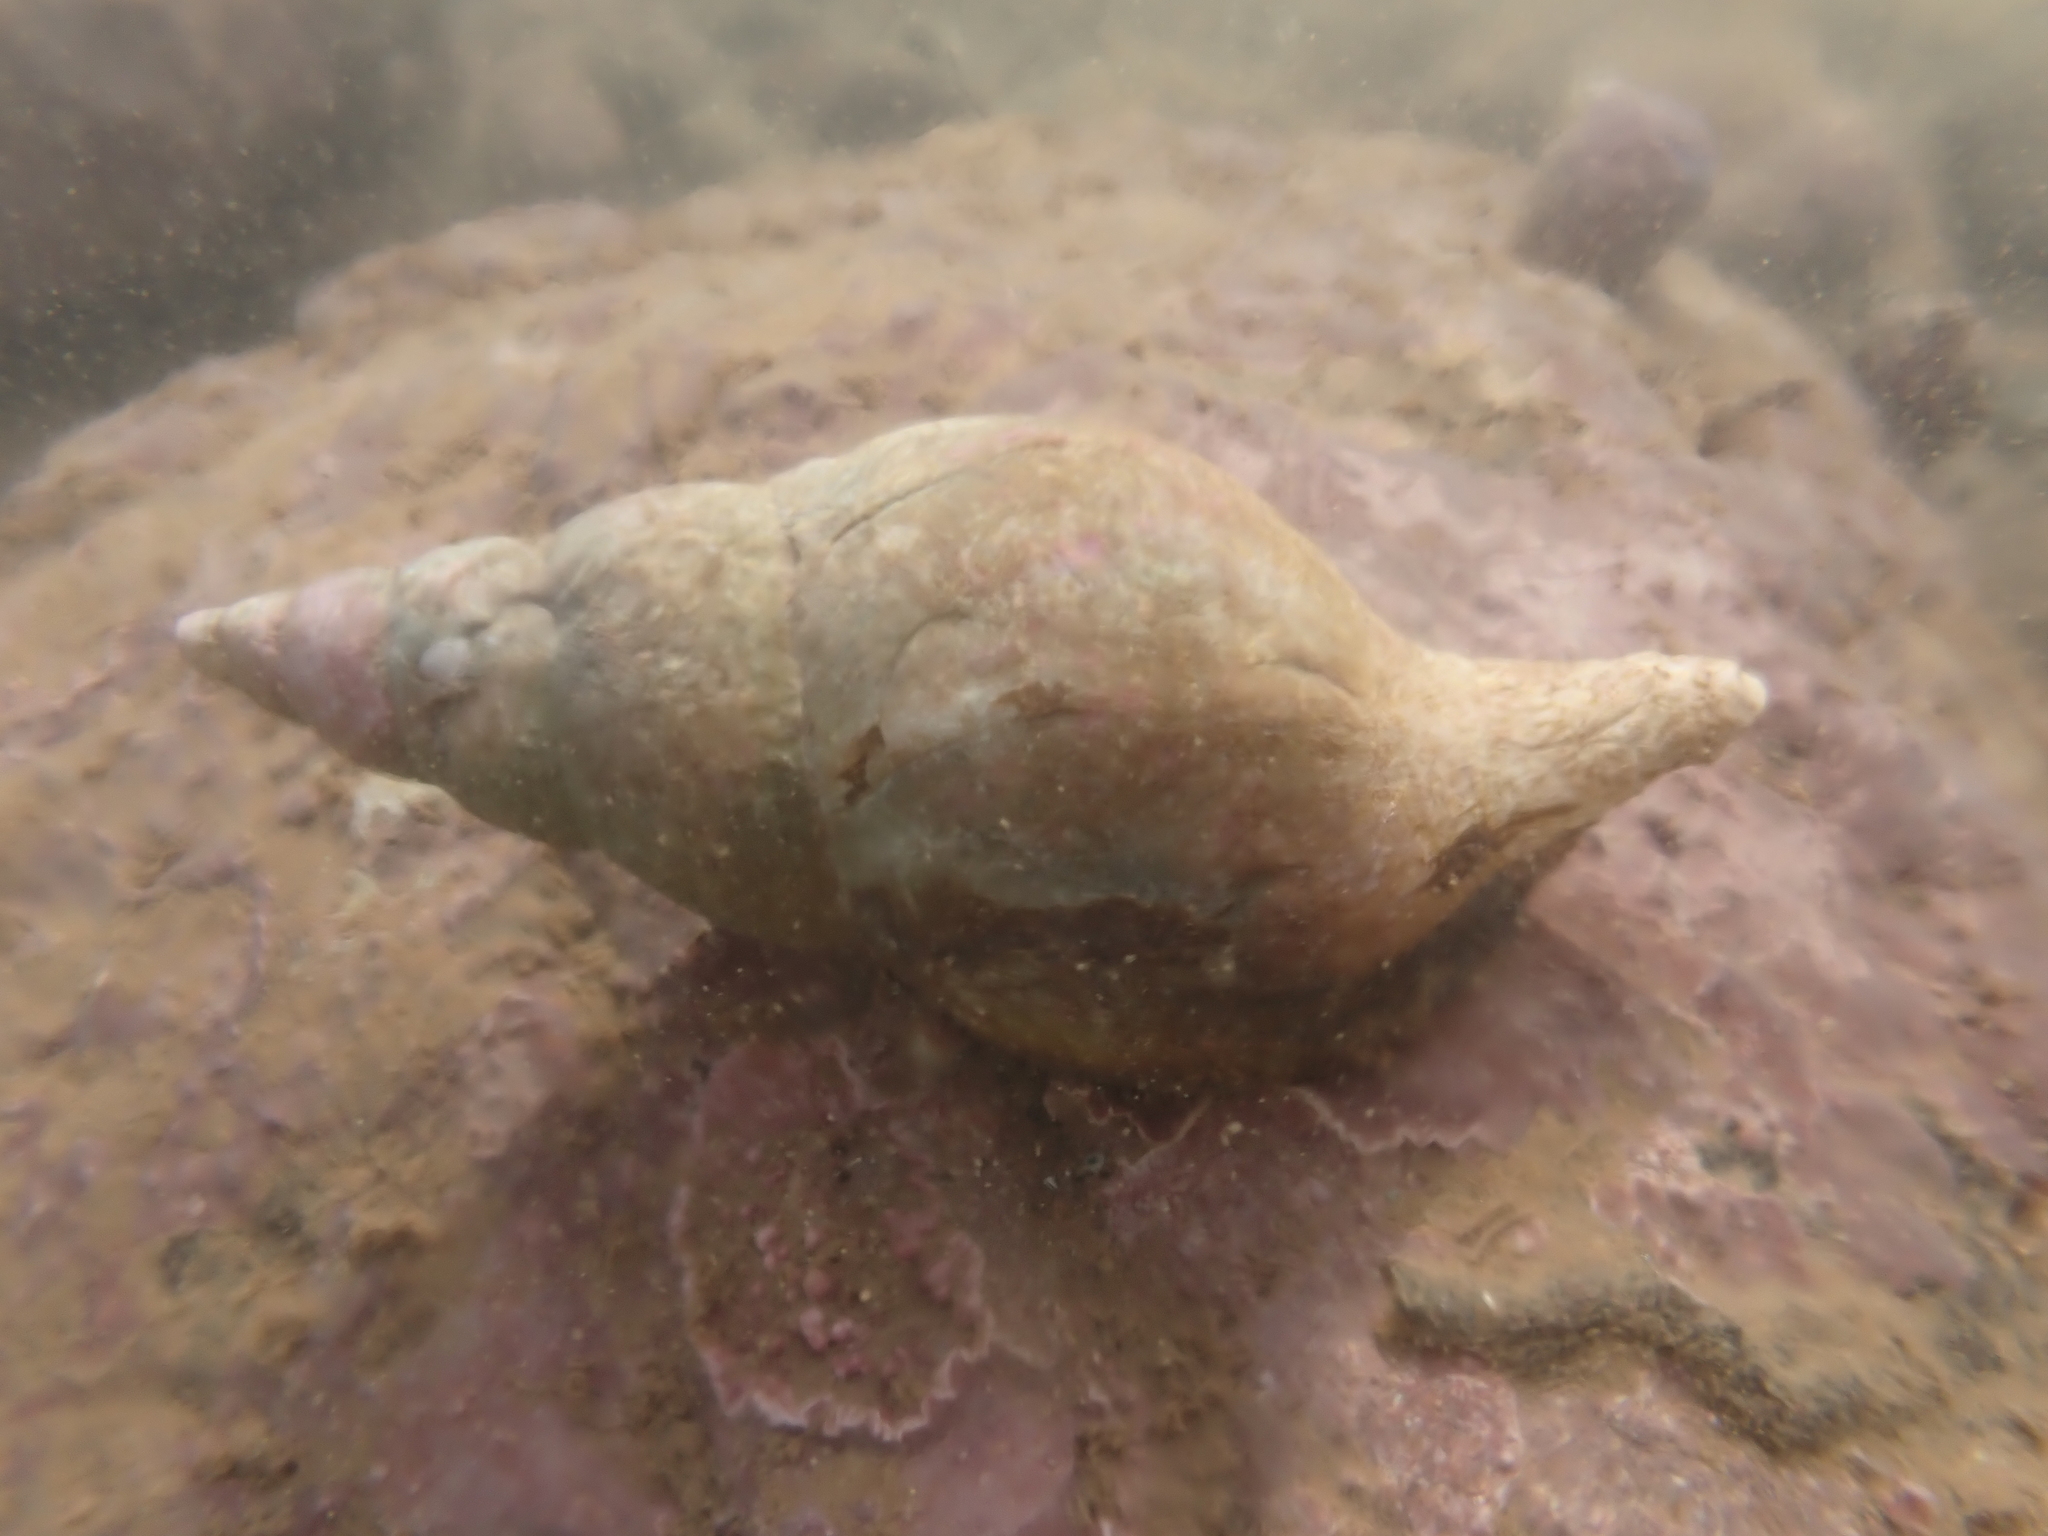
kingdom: Animalia
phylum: Mollusca
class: Gastropoda
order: Neogastropoda
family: Colidae
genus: Colus
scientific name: Colus stimpsoni
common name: Stimpson's colus
